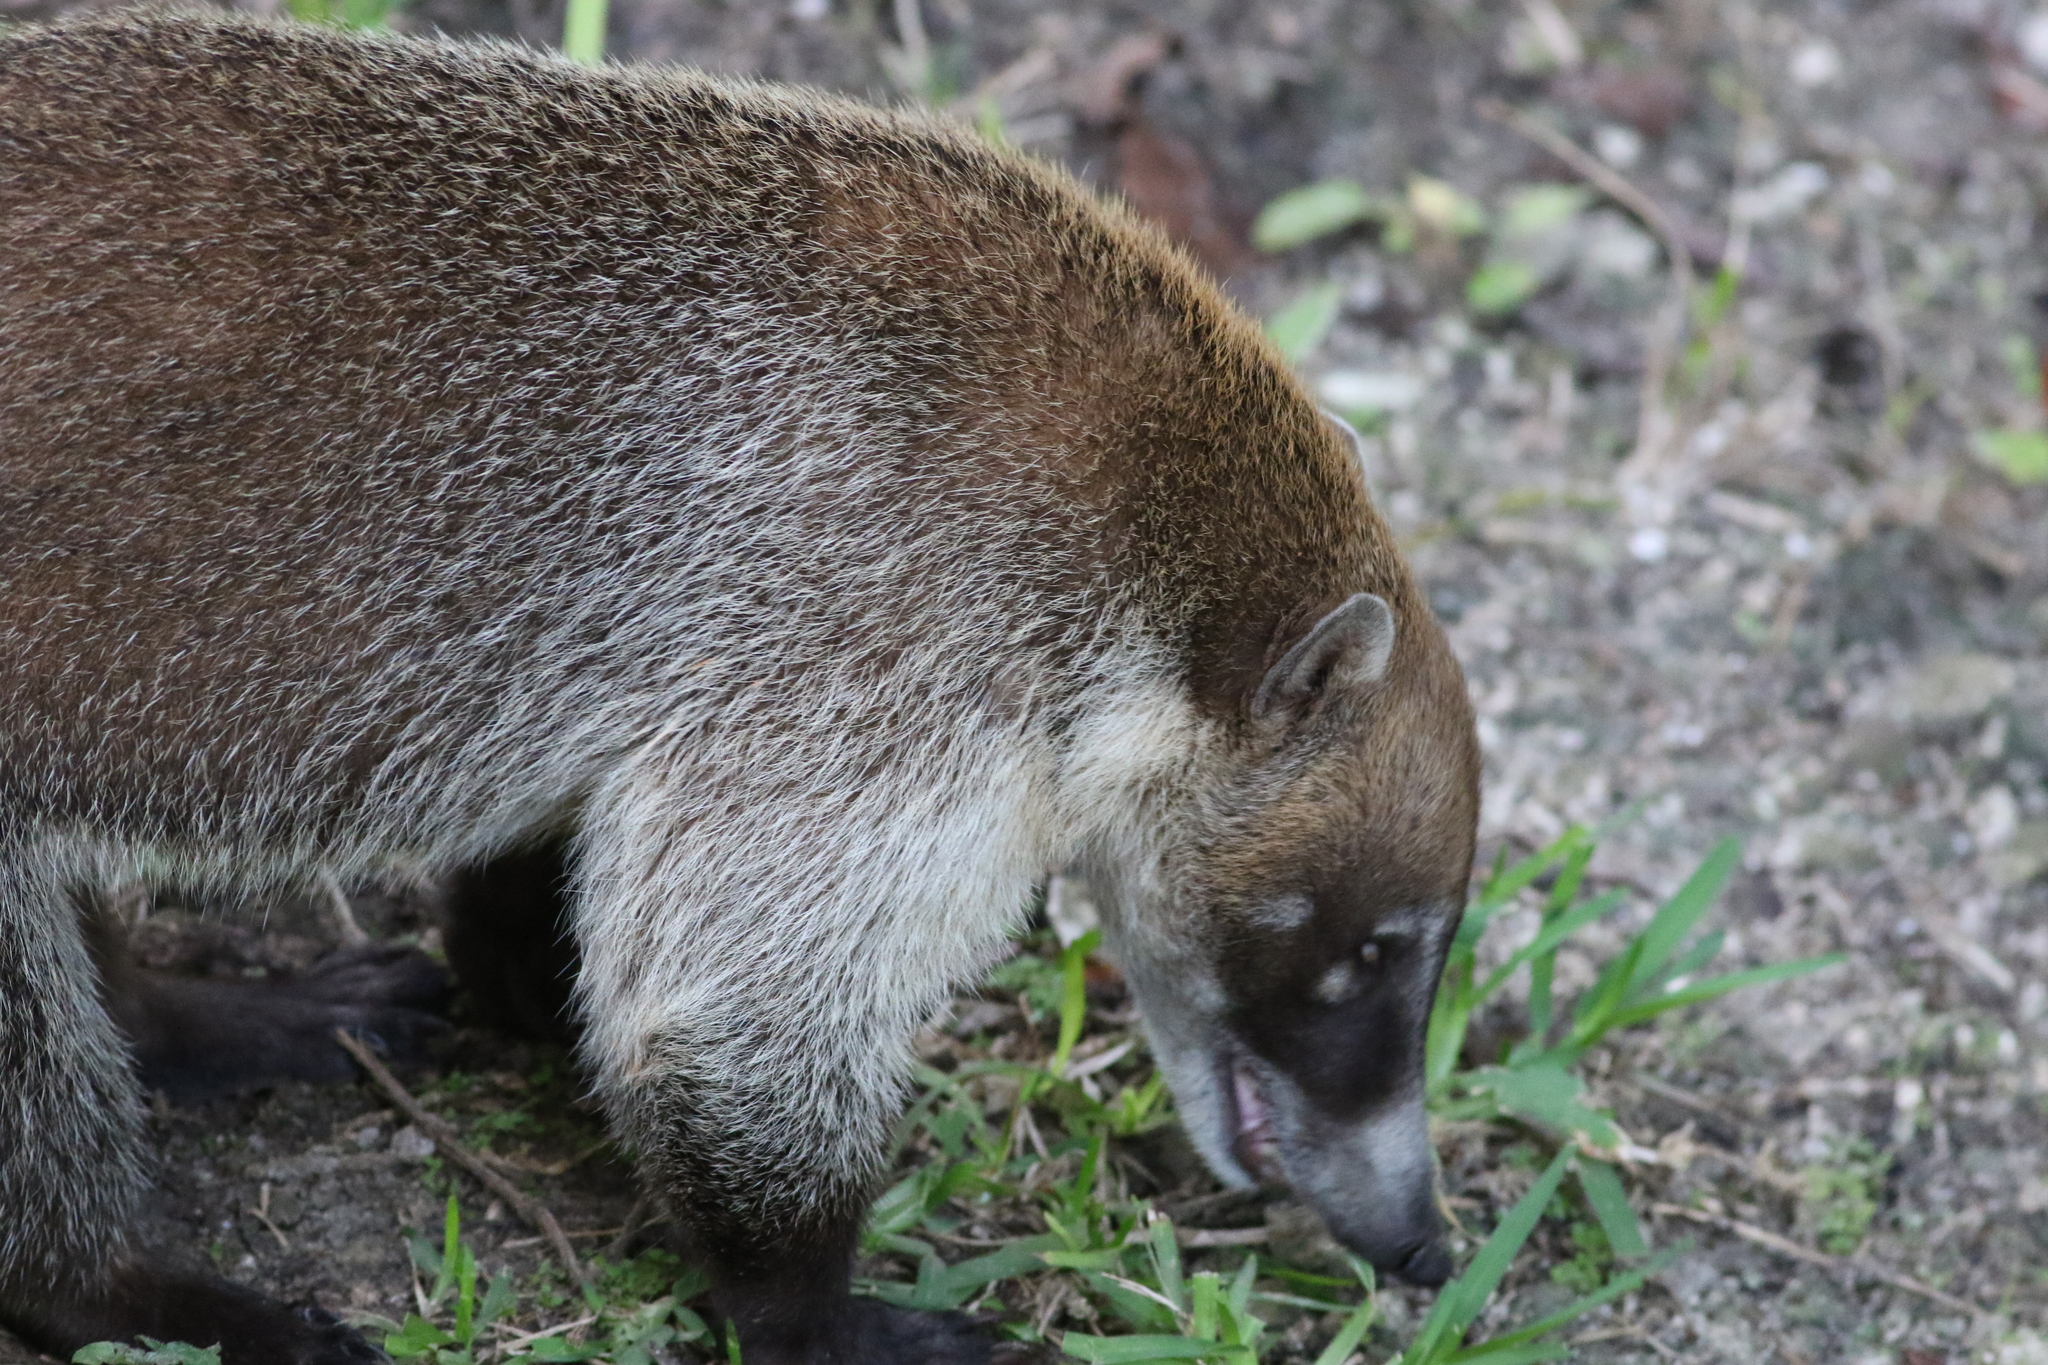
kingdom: Animalia
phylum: Chordata
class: Mammalia
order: Carnivora
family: Procyonidae
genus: Nasua
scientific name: Nasua narica
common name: White-nosed coati
